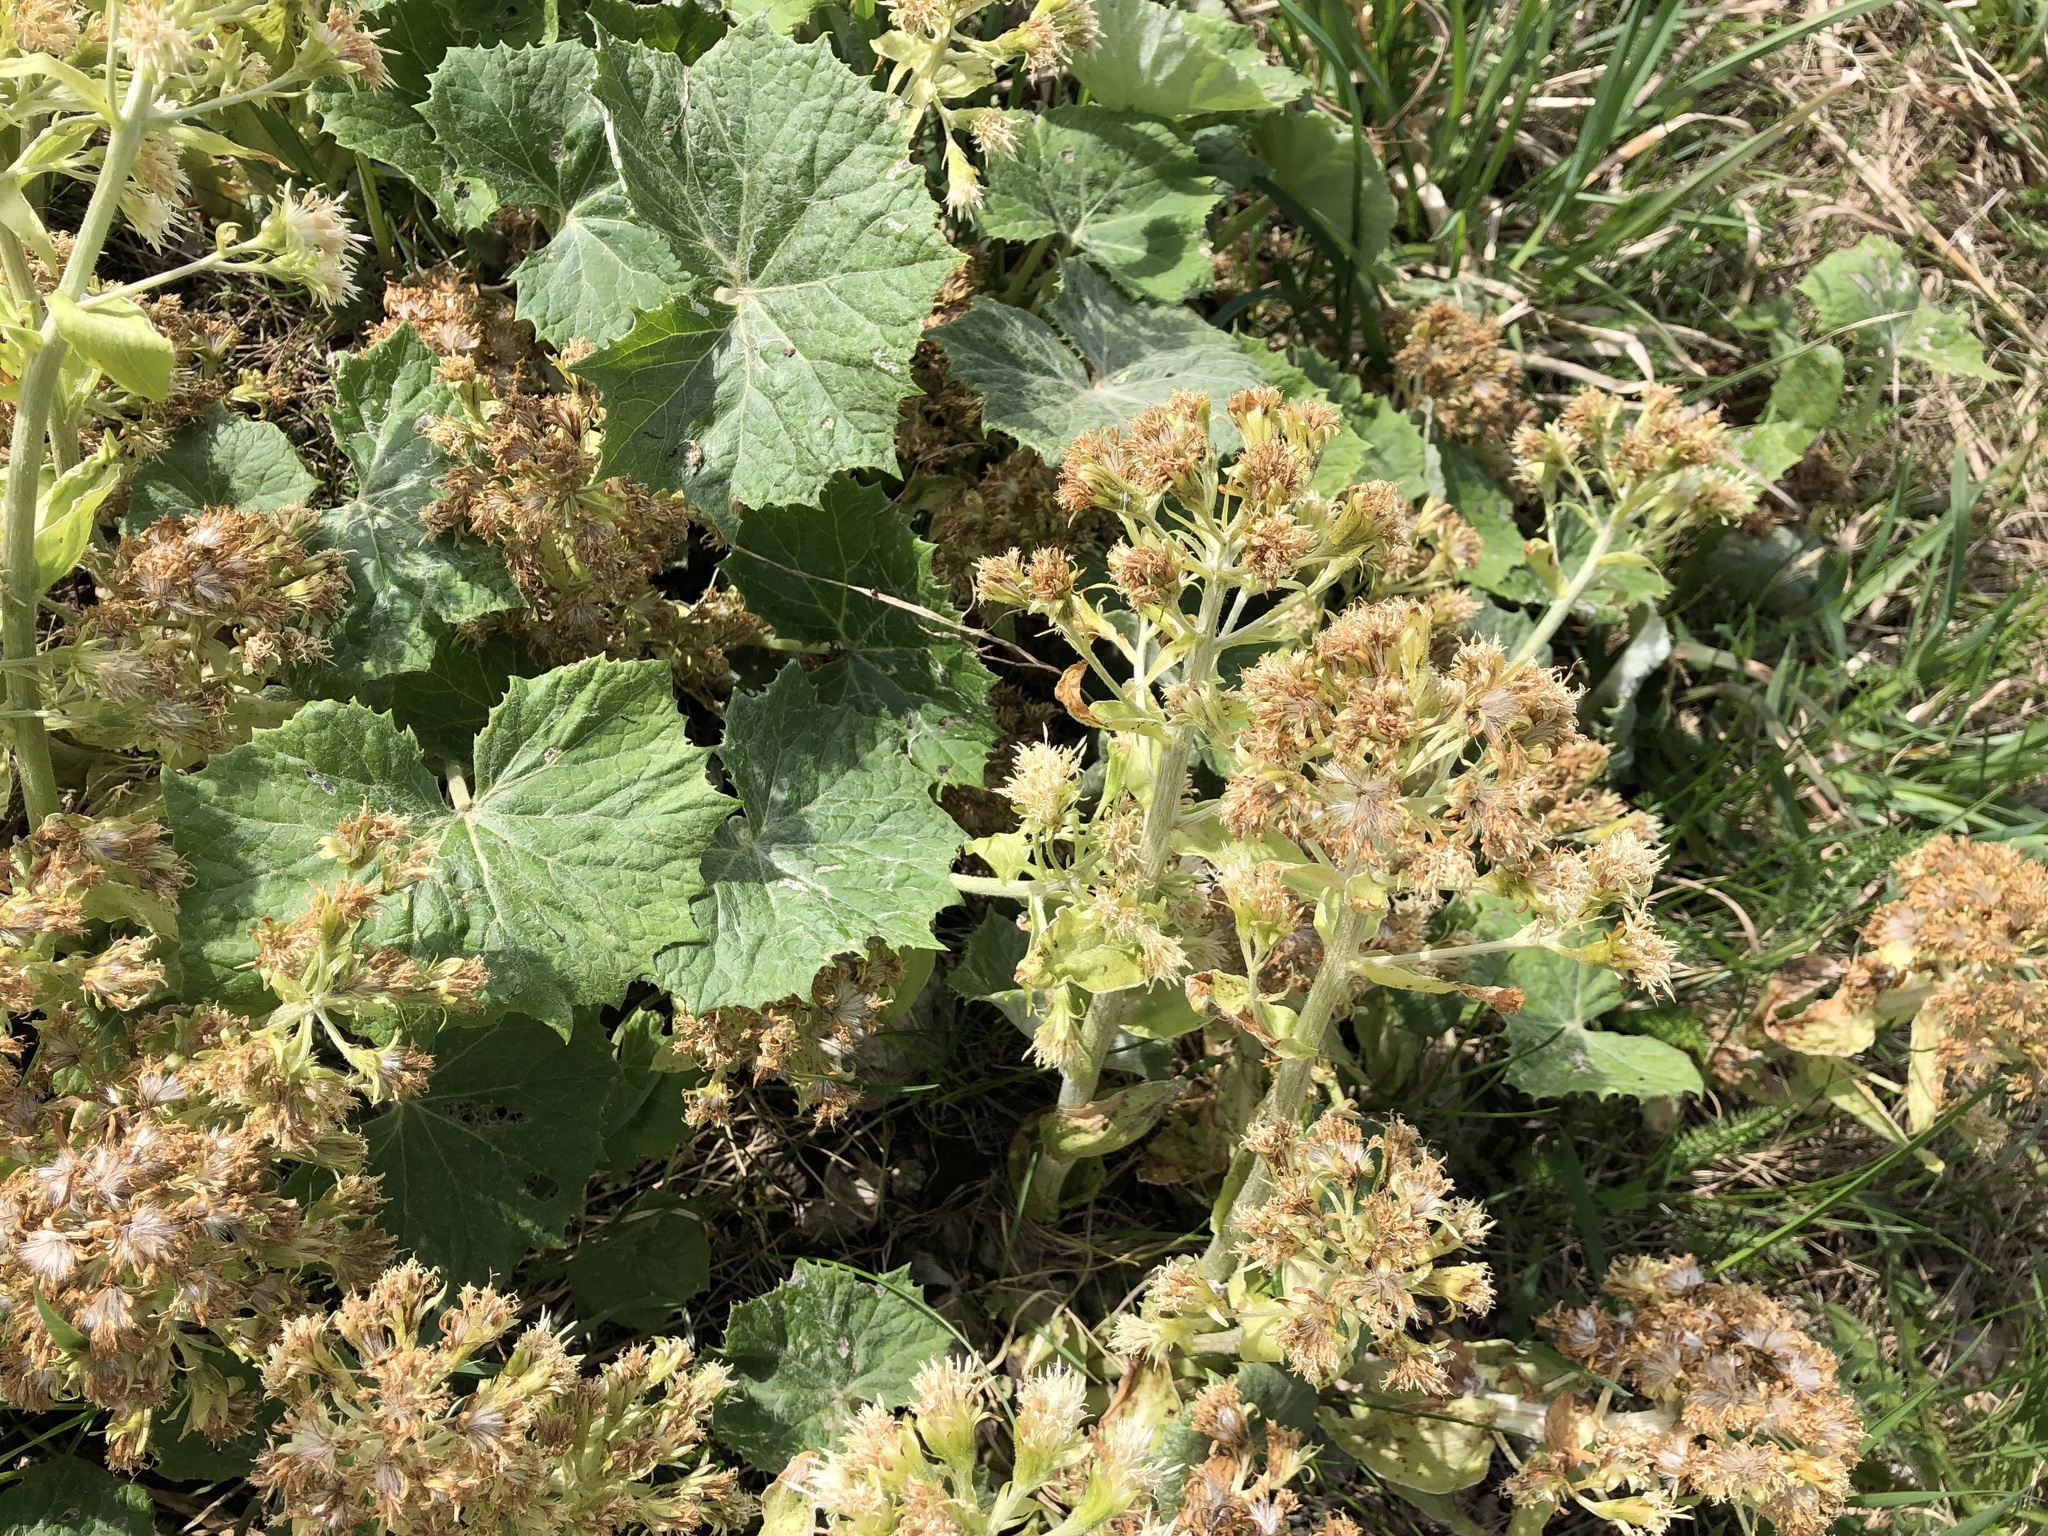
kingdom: Plantae
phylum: Tracheophyta
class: Magnoliopsida
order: Asterales
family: Asteraceae
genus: Petasites
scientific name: Petasites albus
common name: White butterbur
